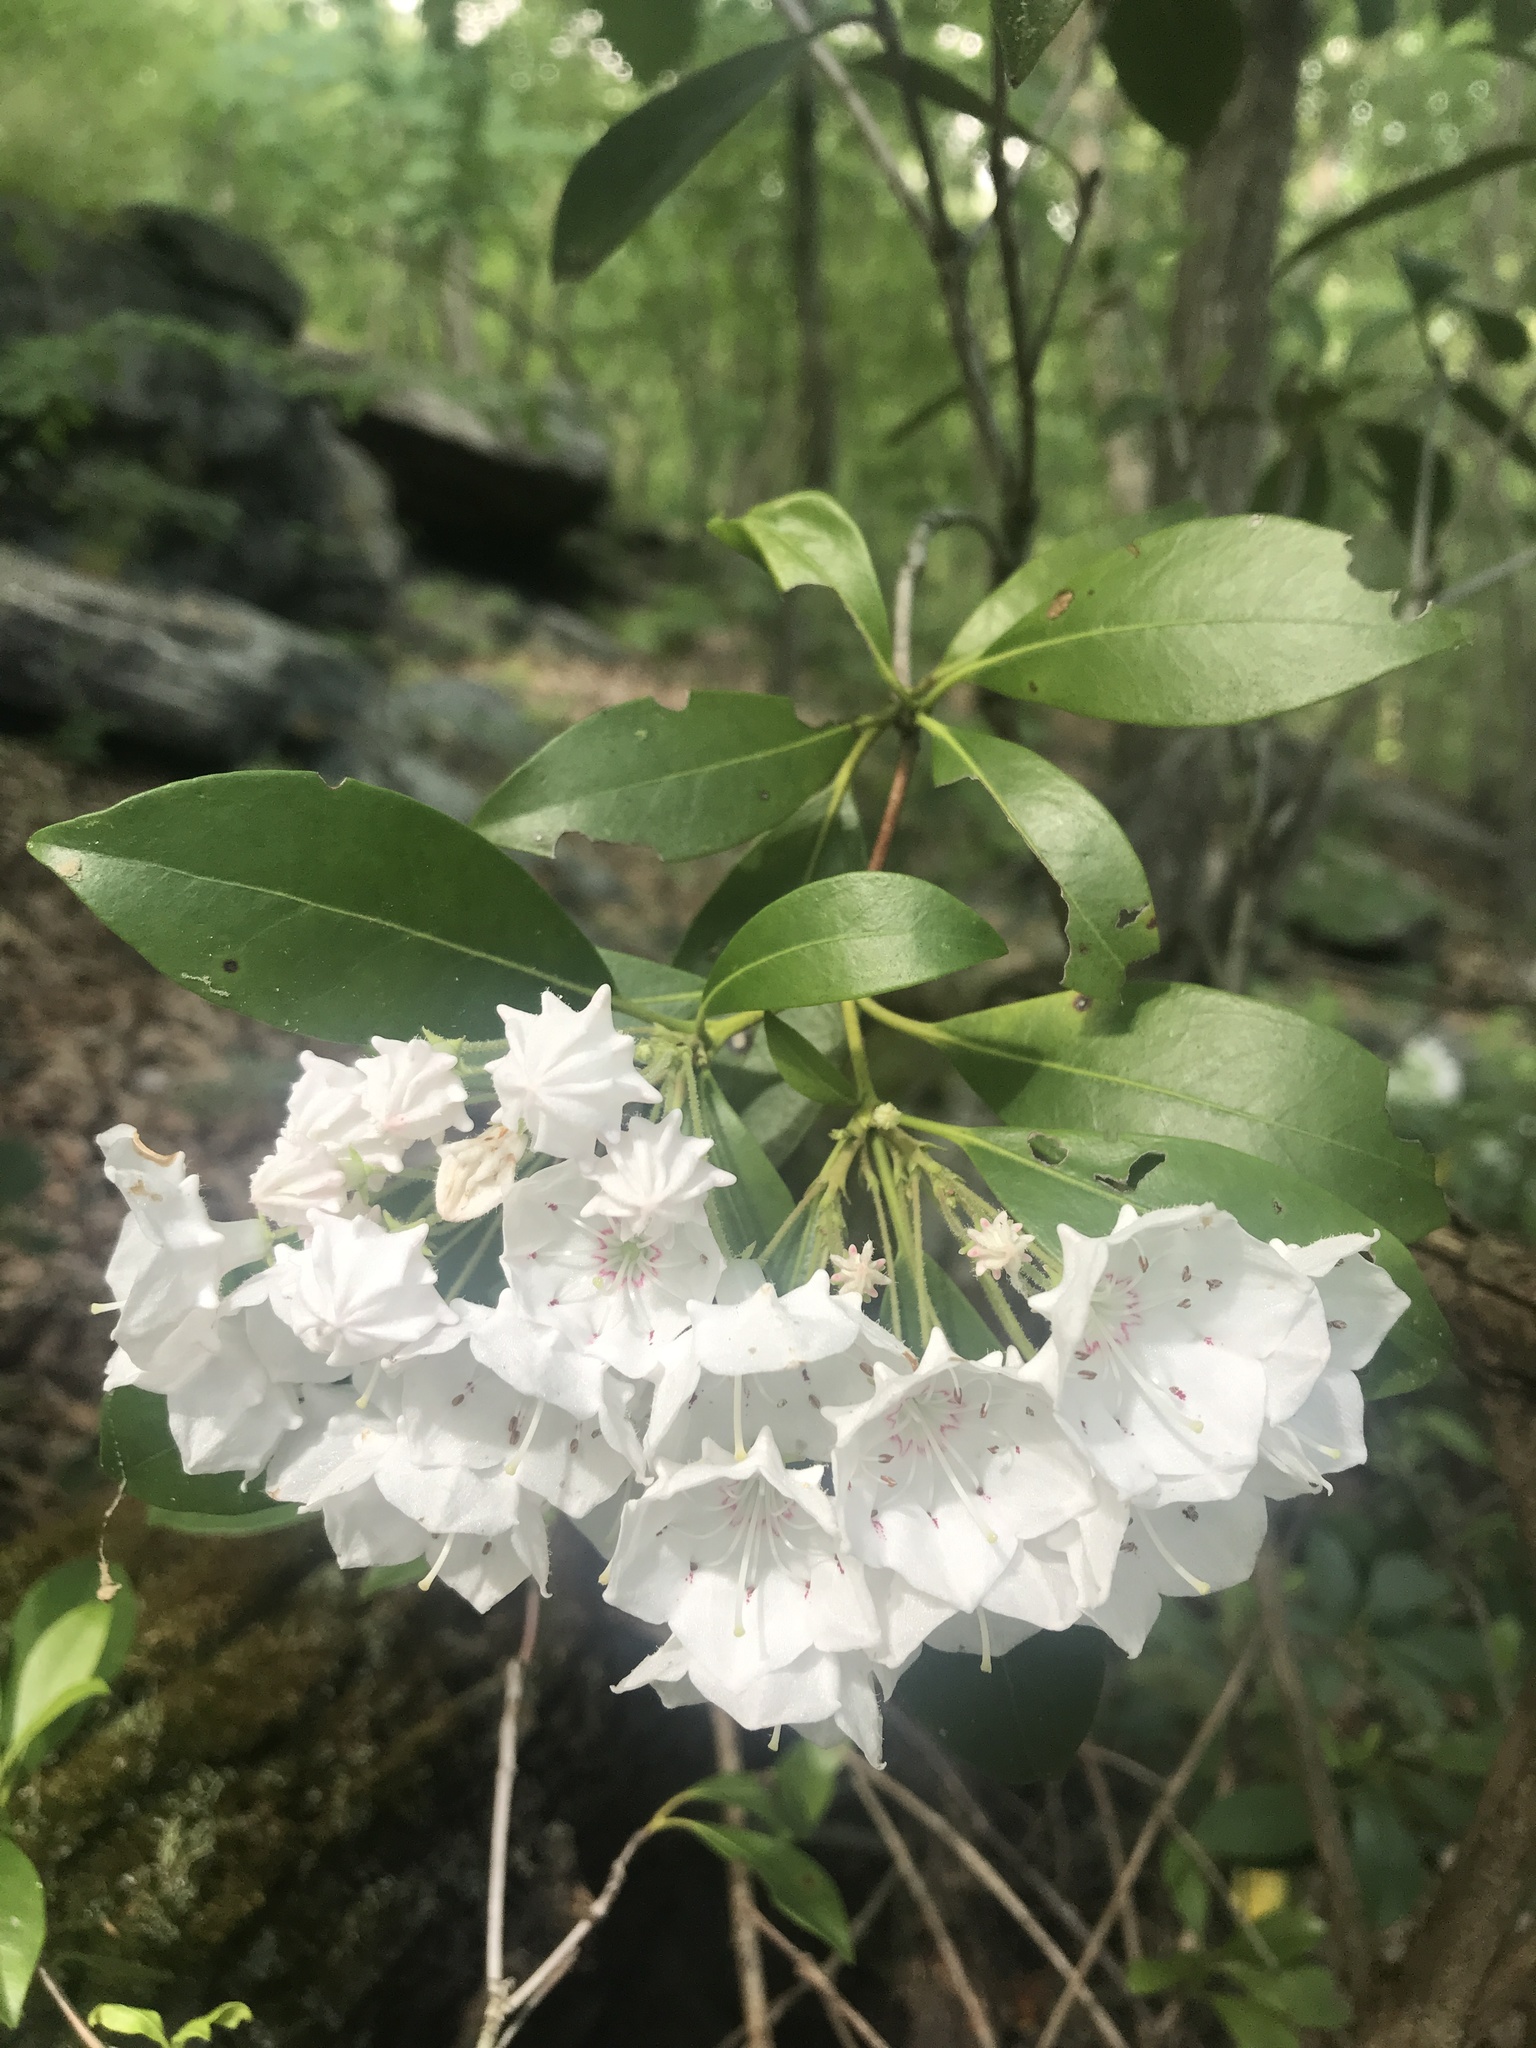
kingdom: Plantae
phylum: Tracheophyta
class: Magnoliopsida
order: Ericales
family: Ericaceae
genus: Kalmia
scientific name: Kalmia latifolia
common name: Mountain-laurel
